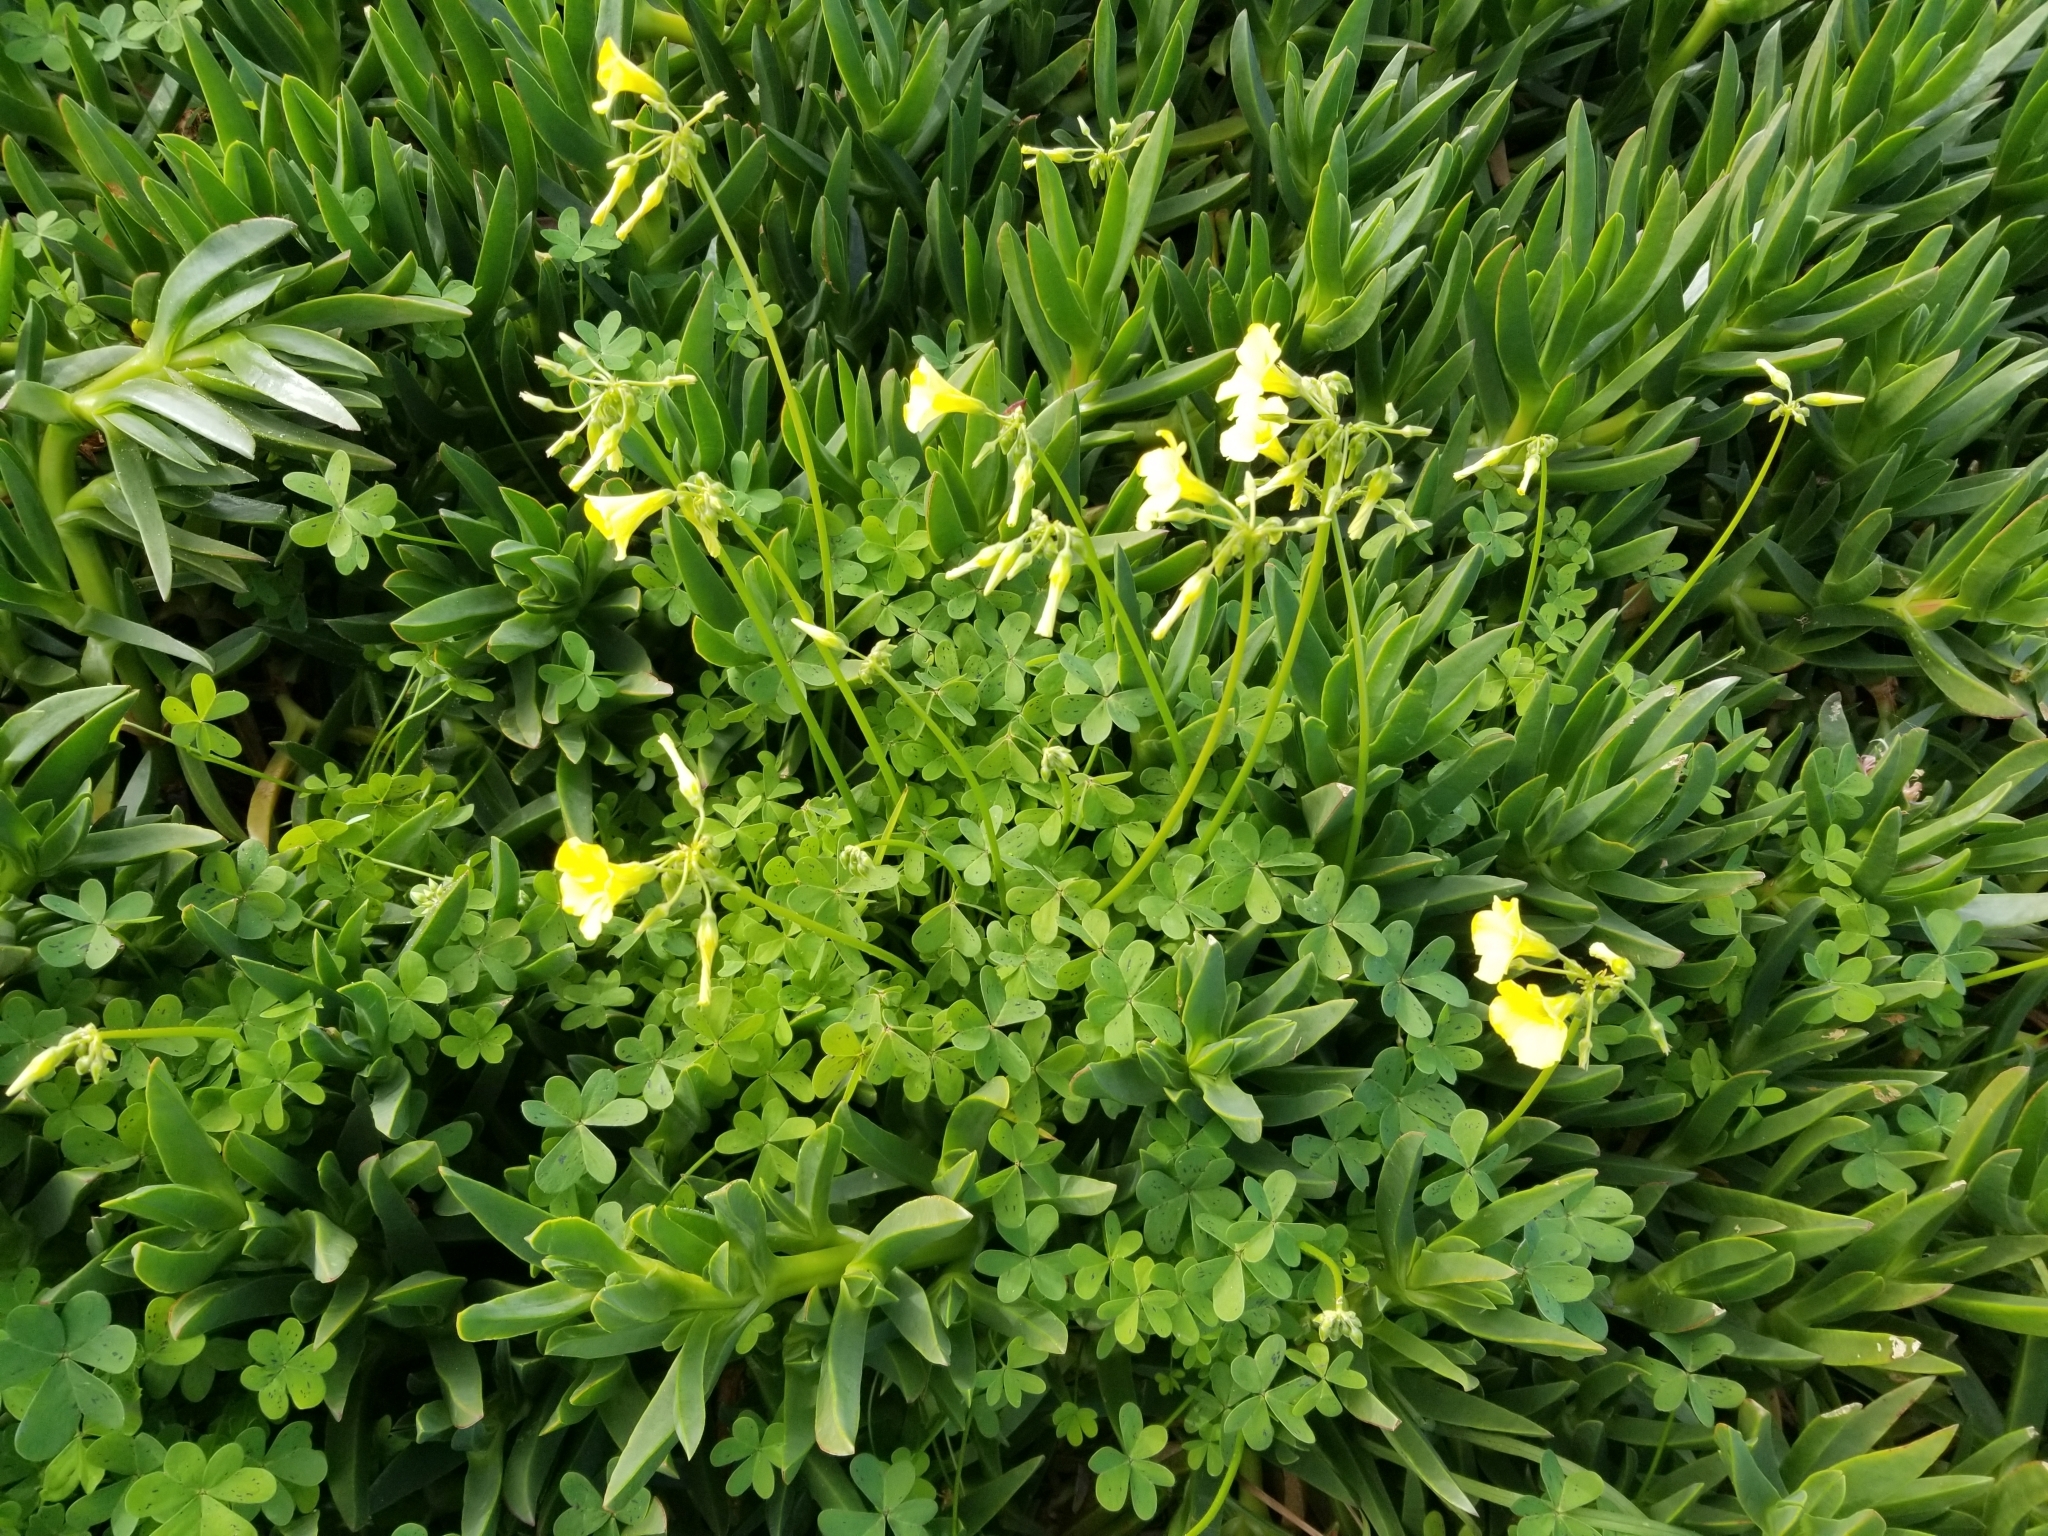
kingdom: Plantae
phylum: Tracheophyta
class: Magnoliopsida
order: Oxalidales
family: Oxalidaceae
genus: Oxalis
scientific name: Oxalis pes-caprae
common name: Bermuda-buttercup
